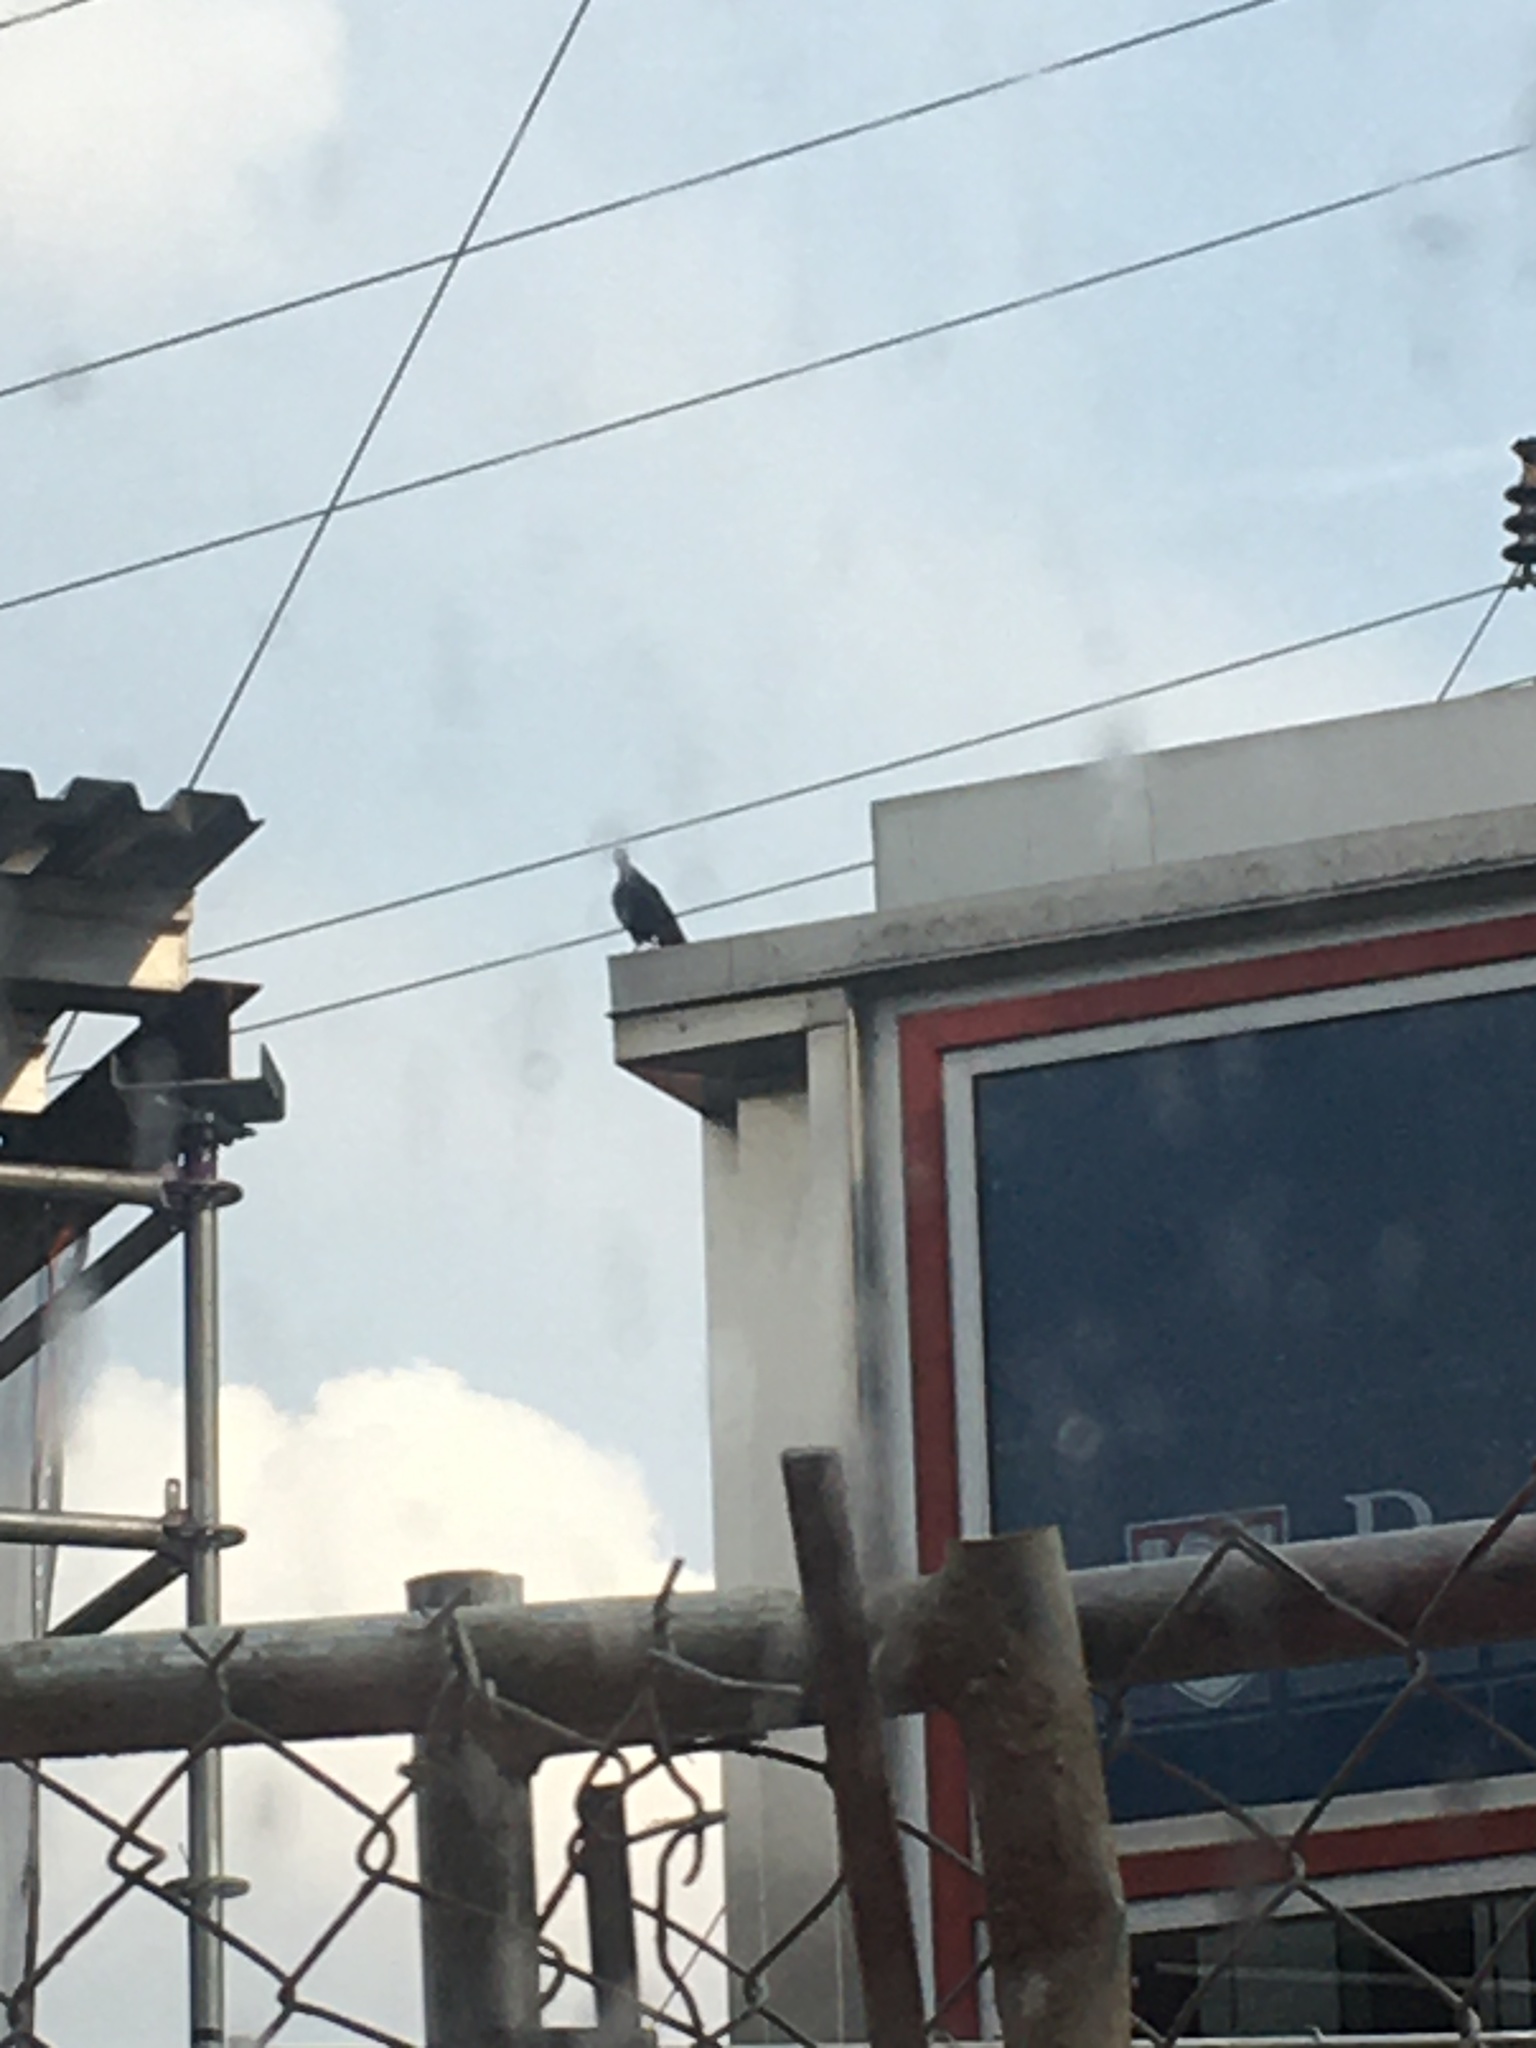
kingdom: Animalia
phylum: Chordata
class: Aves
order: Columbiformes
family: Columbidae
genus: Columba
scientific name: Columba livia
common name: Rock pigeon
